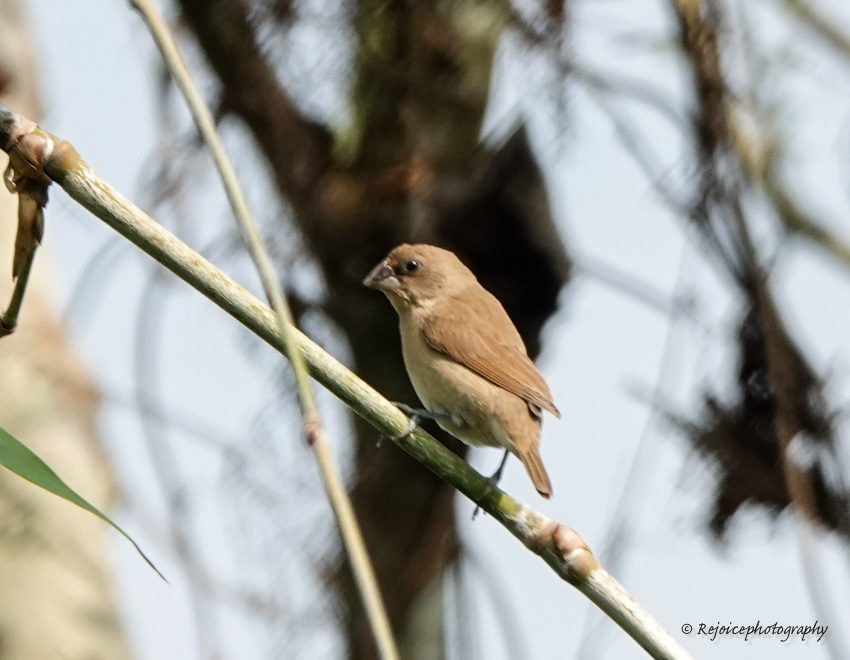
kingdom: Animalia
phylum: Chordata
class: Aves
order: Passeriformes
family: Estrildidae
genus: Lonchura
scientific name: Lonchura punctulata
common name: Scaly-breasted munia
